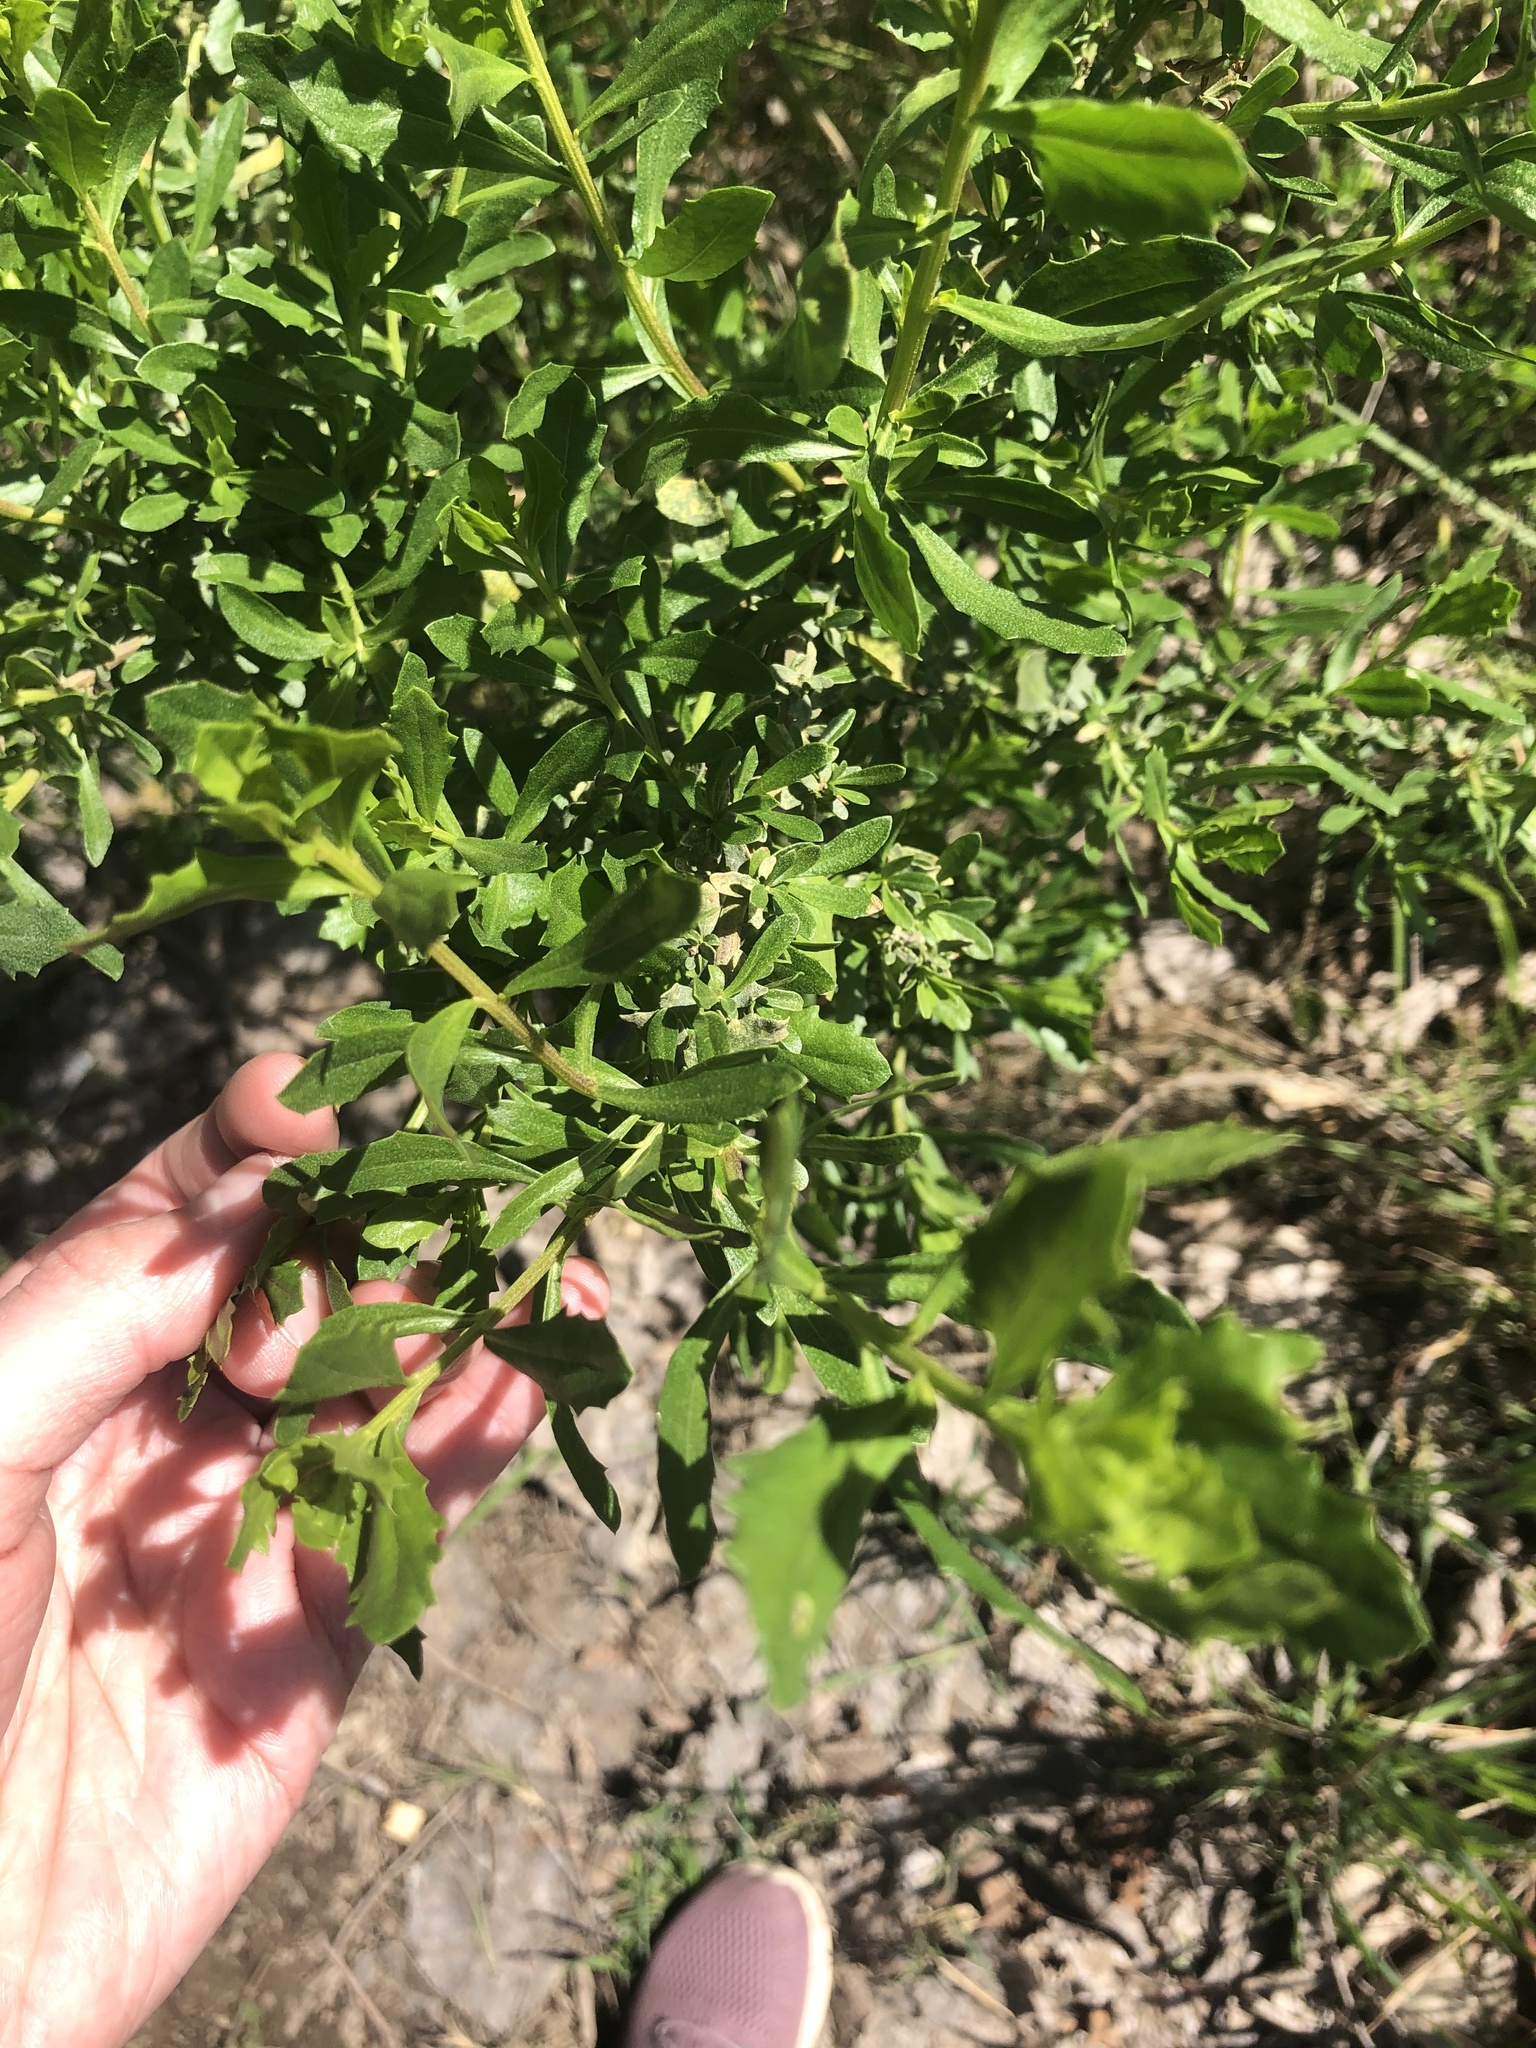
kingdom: Plantae
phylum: Tracheophyta
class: Magnoliopsida
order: Asterales
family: Asteraceae
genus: Baccharis
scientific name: Baccharis pilularis
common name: Coyotebrush
